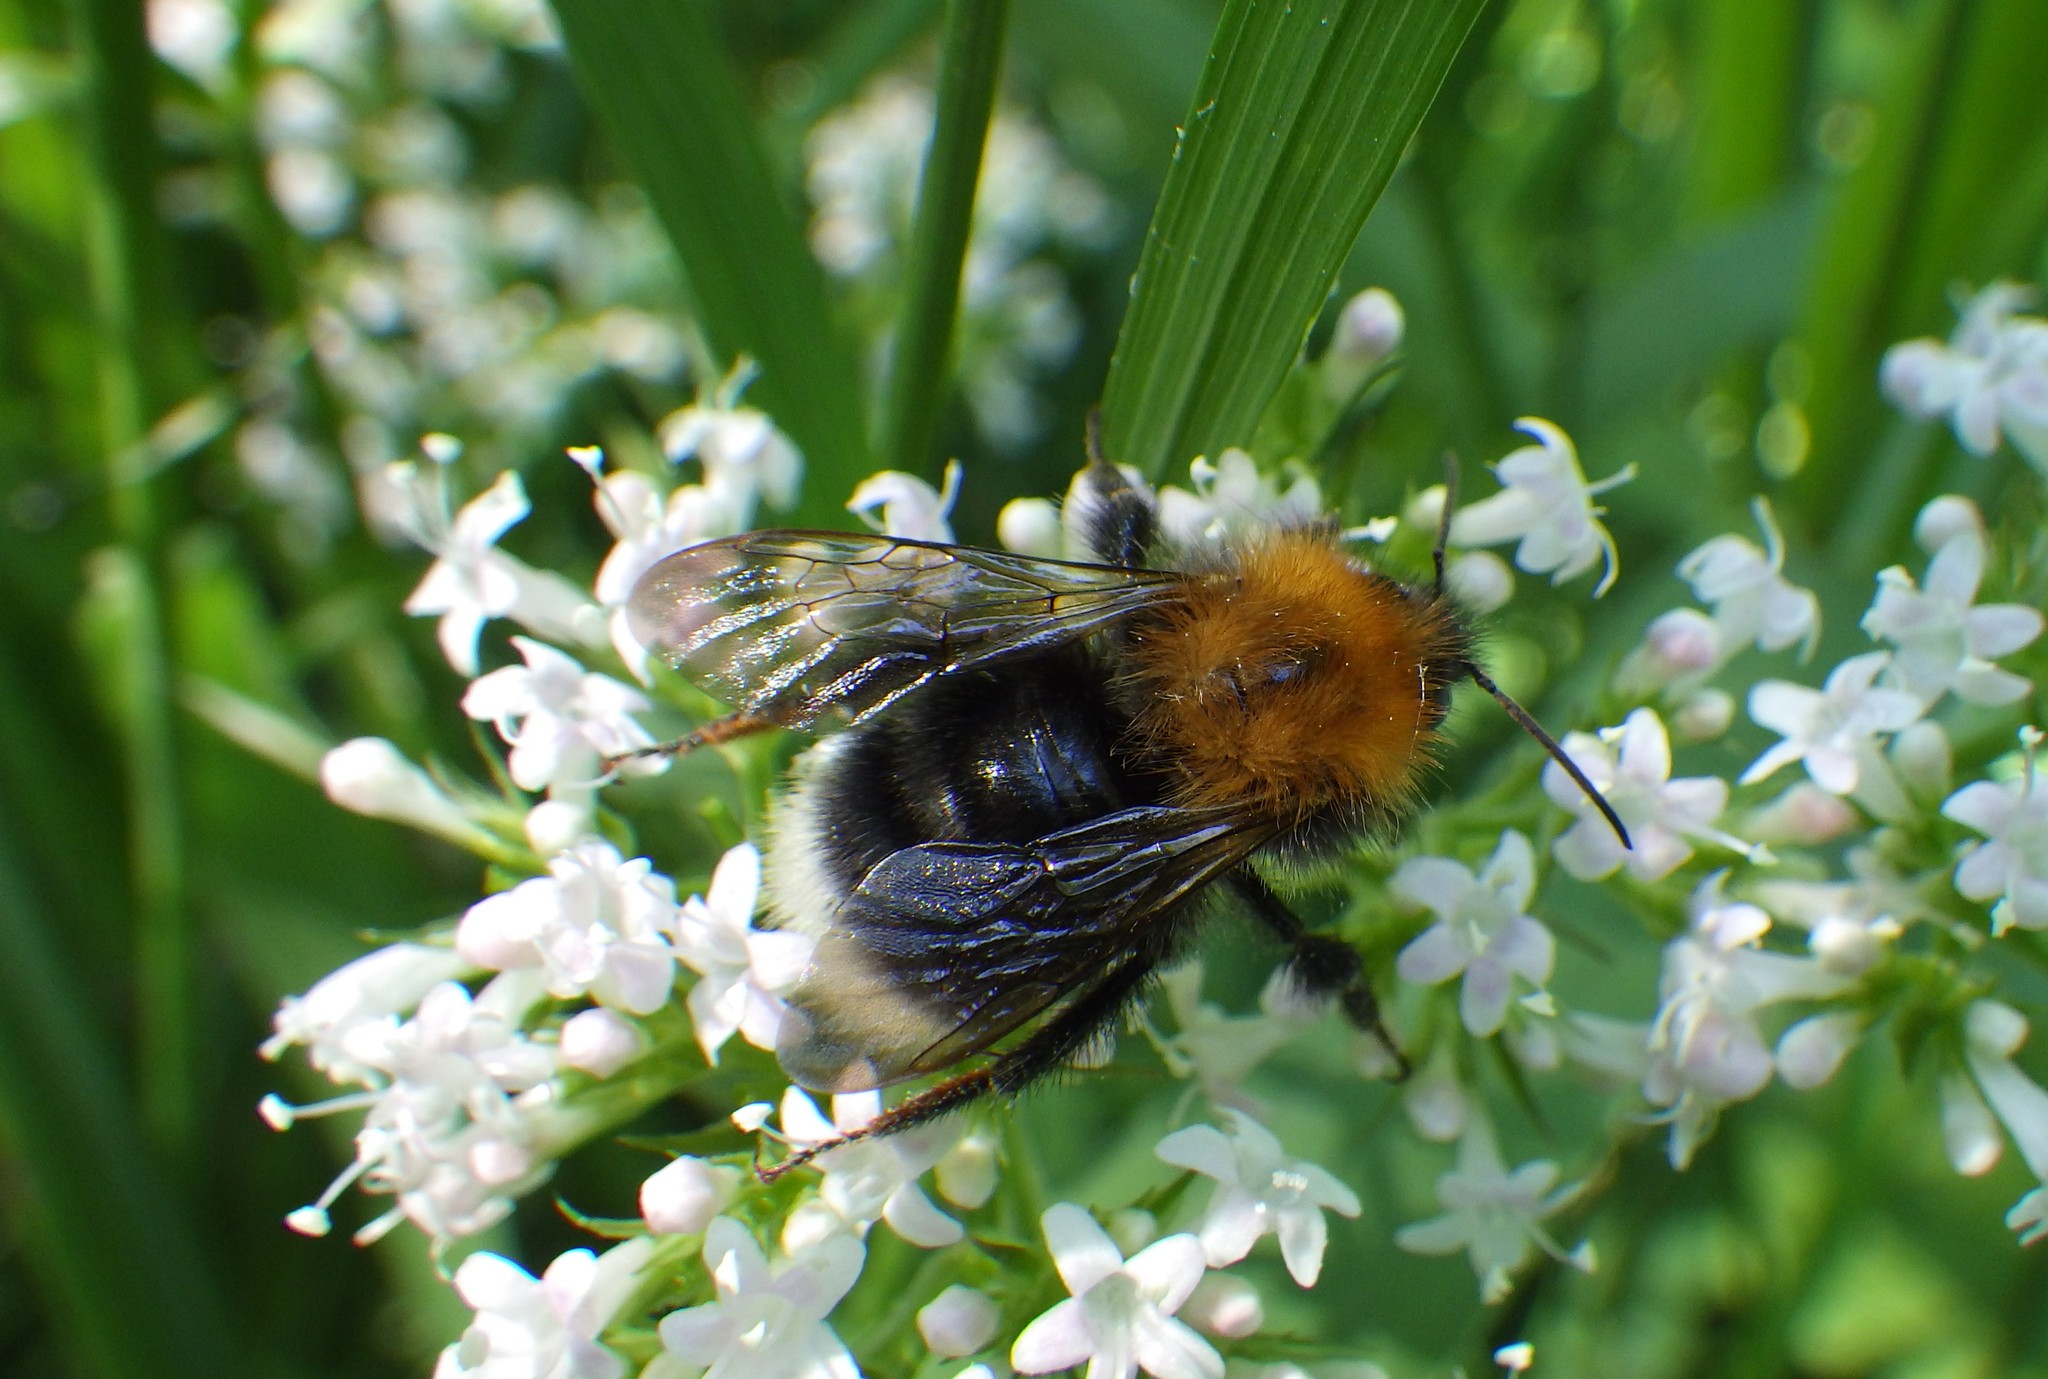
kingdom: Animalia
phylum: Arthropoda
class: Insecta
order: Hymenoptera
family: Apidae
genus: Bombus
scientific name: Bombus hypnorum
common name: New garden bumblebee
